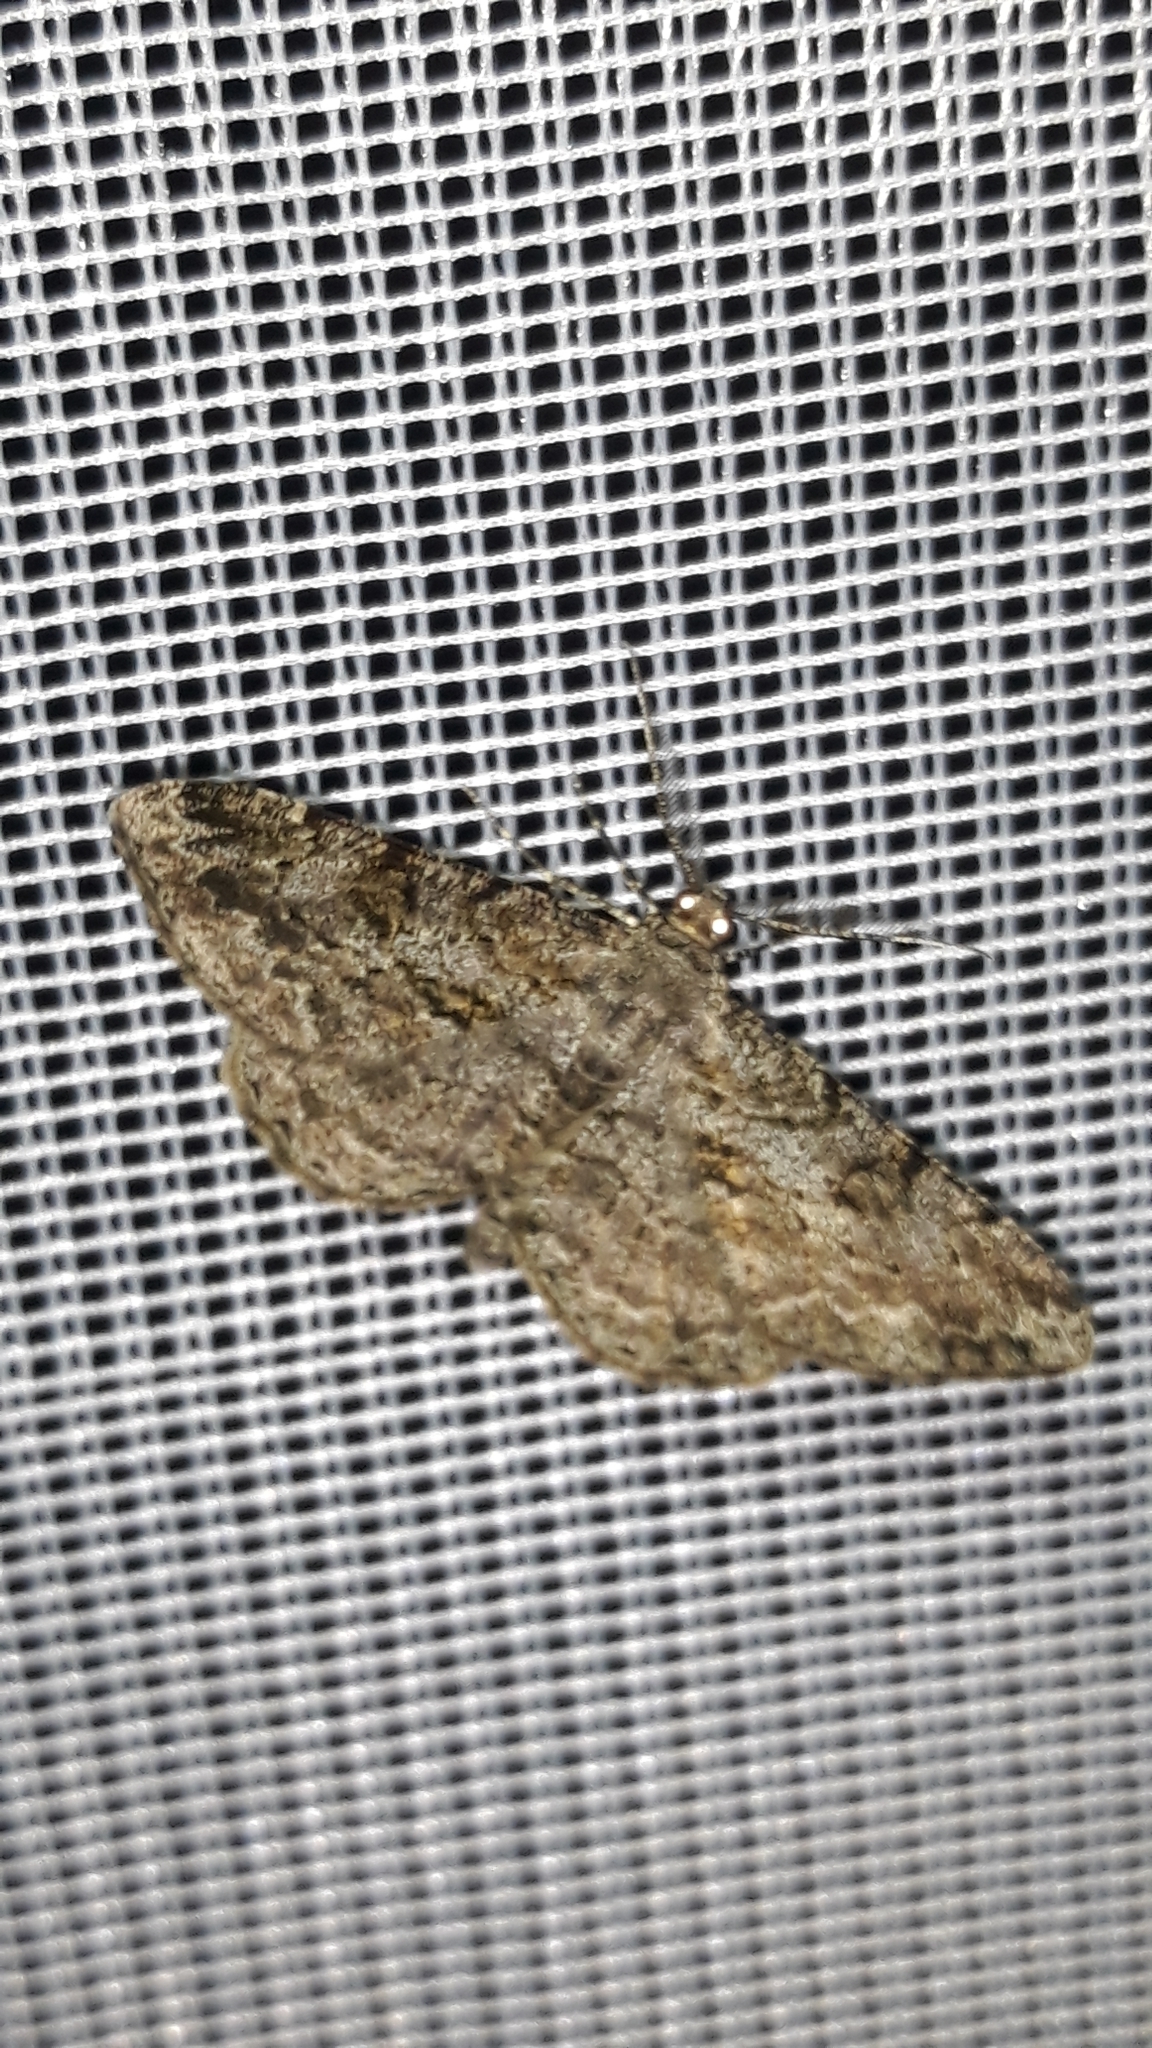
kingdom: Animalia
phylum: Arthropoda
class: Insecta
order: Lepidoptera
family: Geometridae
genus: Peribatodes
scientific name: Peribatodes rhomboidaria
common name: Willow beauty
